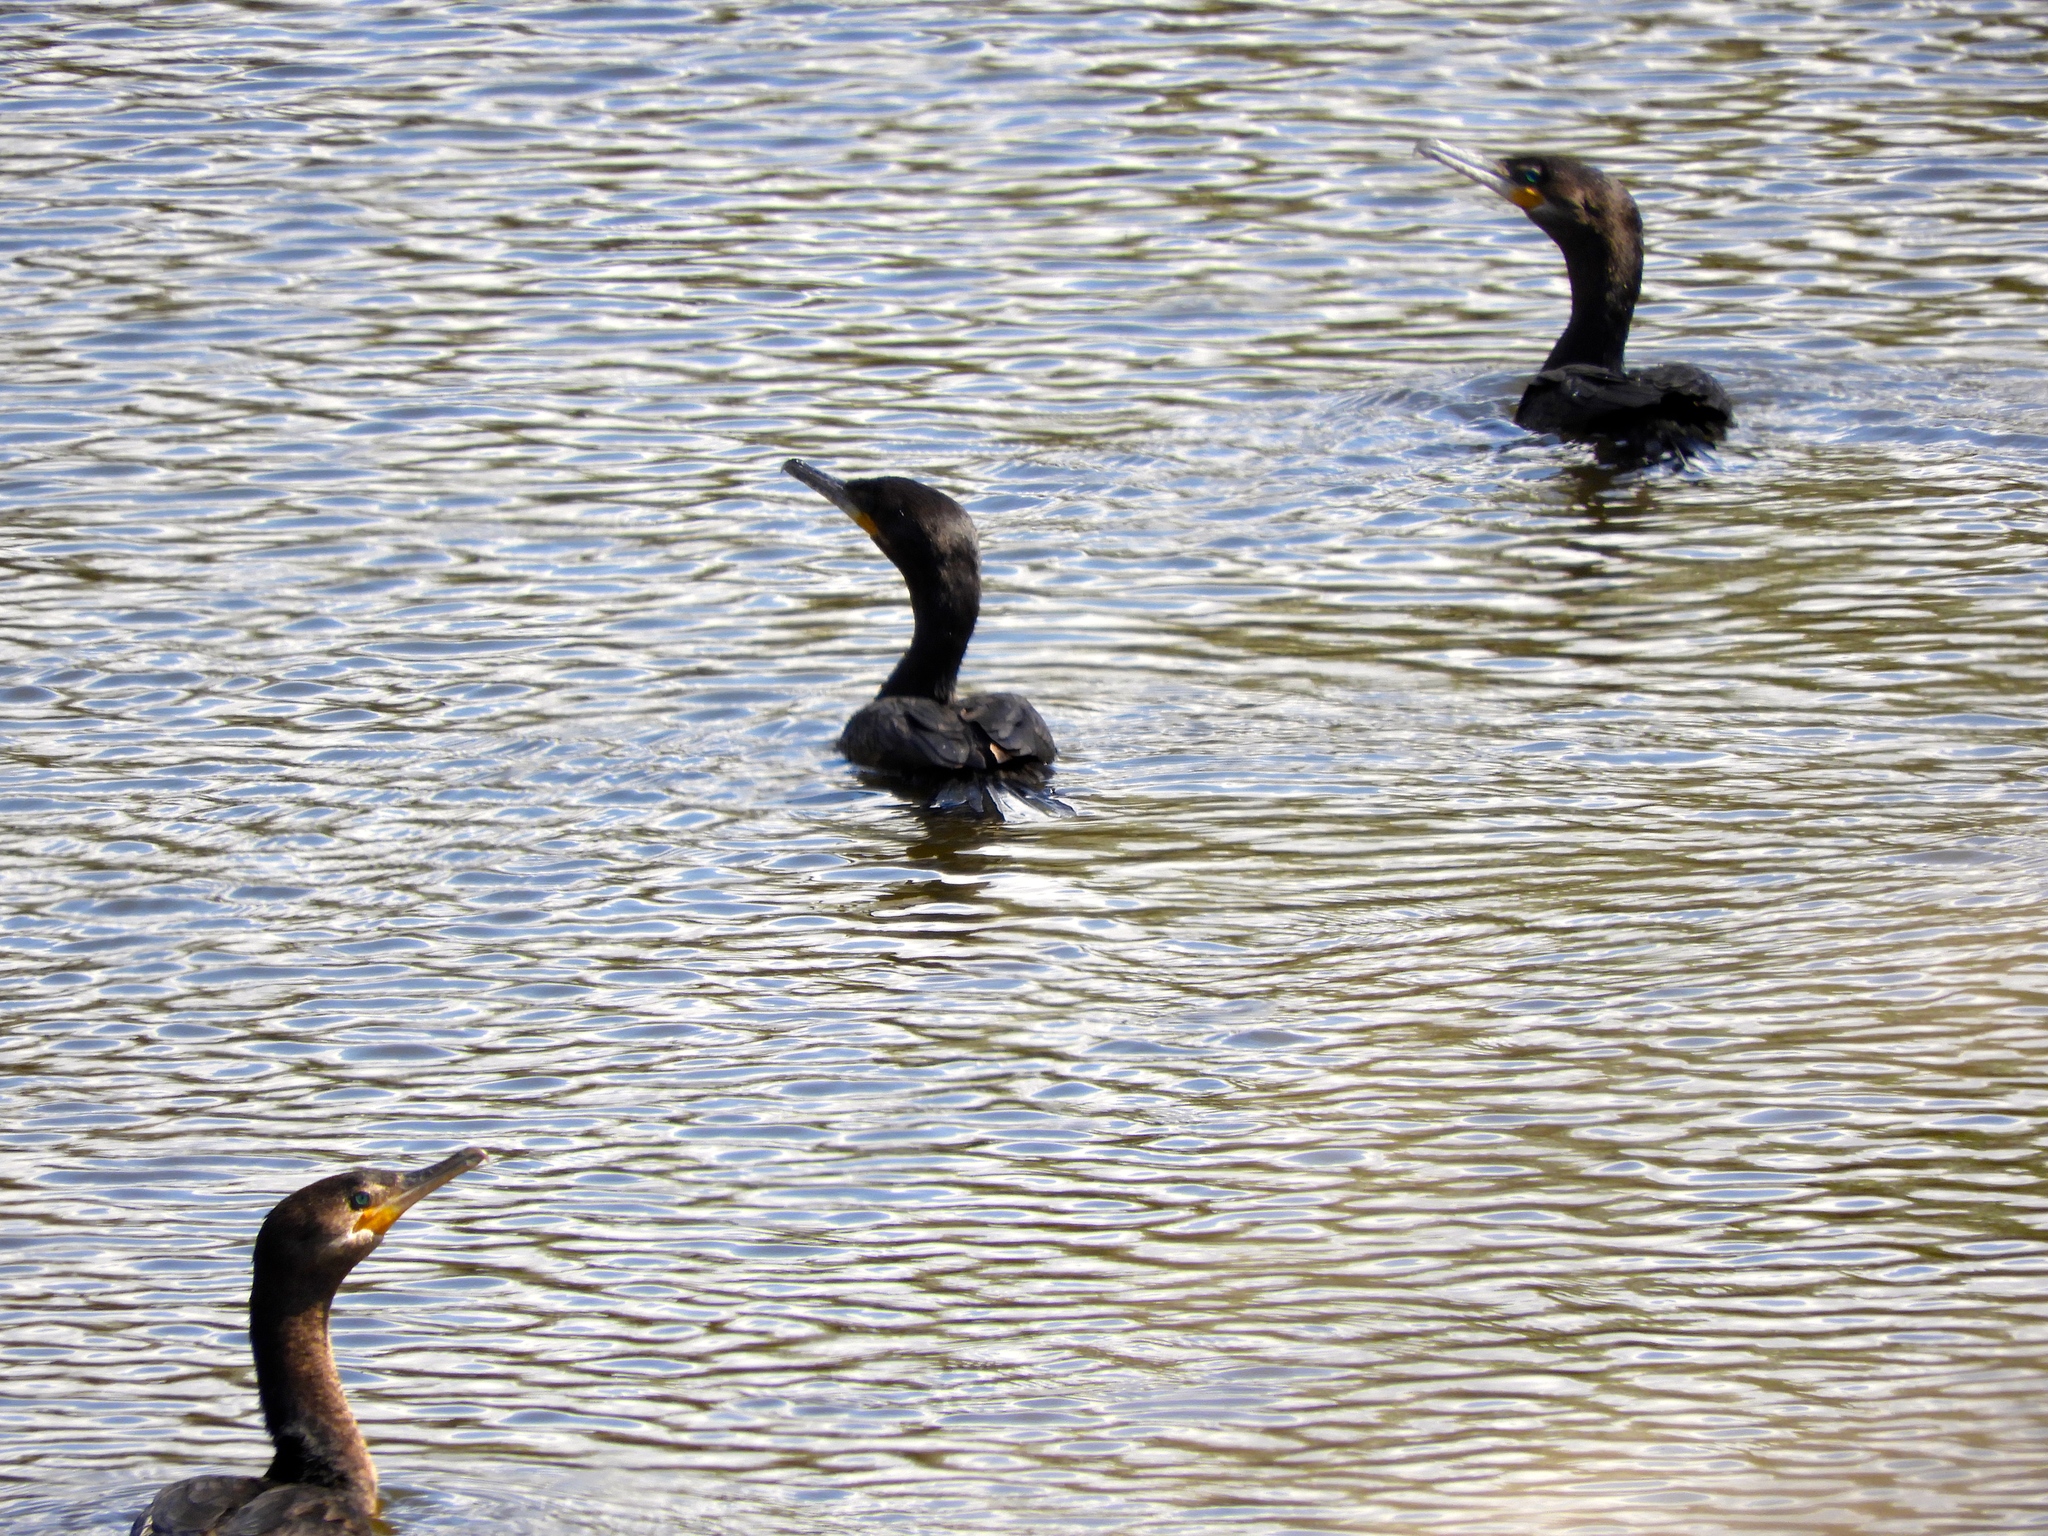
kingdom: Animalia
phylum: Chordata
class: Aves
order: Suliformes
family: Phalacrocoracidae
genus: Phalacrocorax
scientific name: Phalacrocorax brasilianus
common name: Neotropic cormorant
